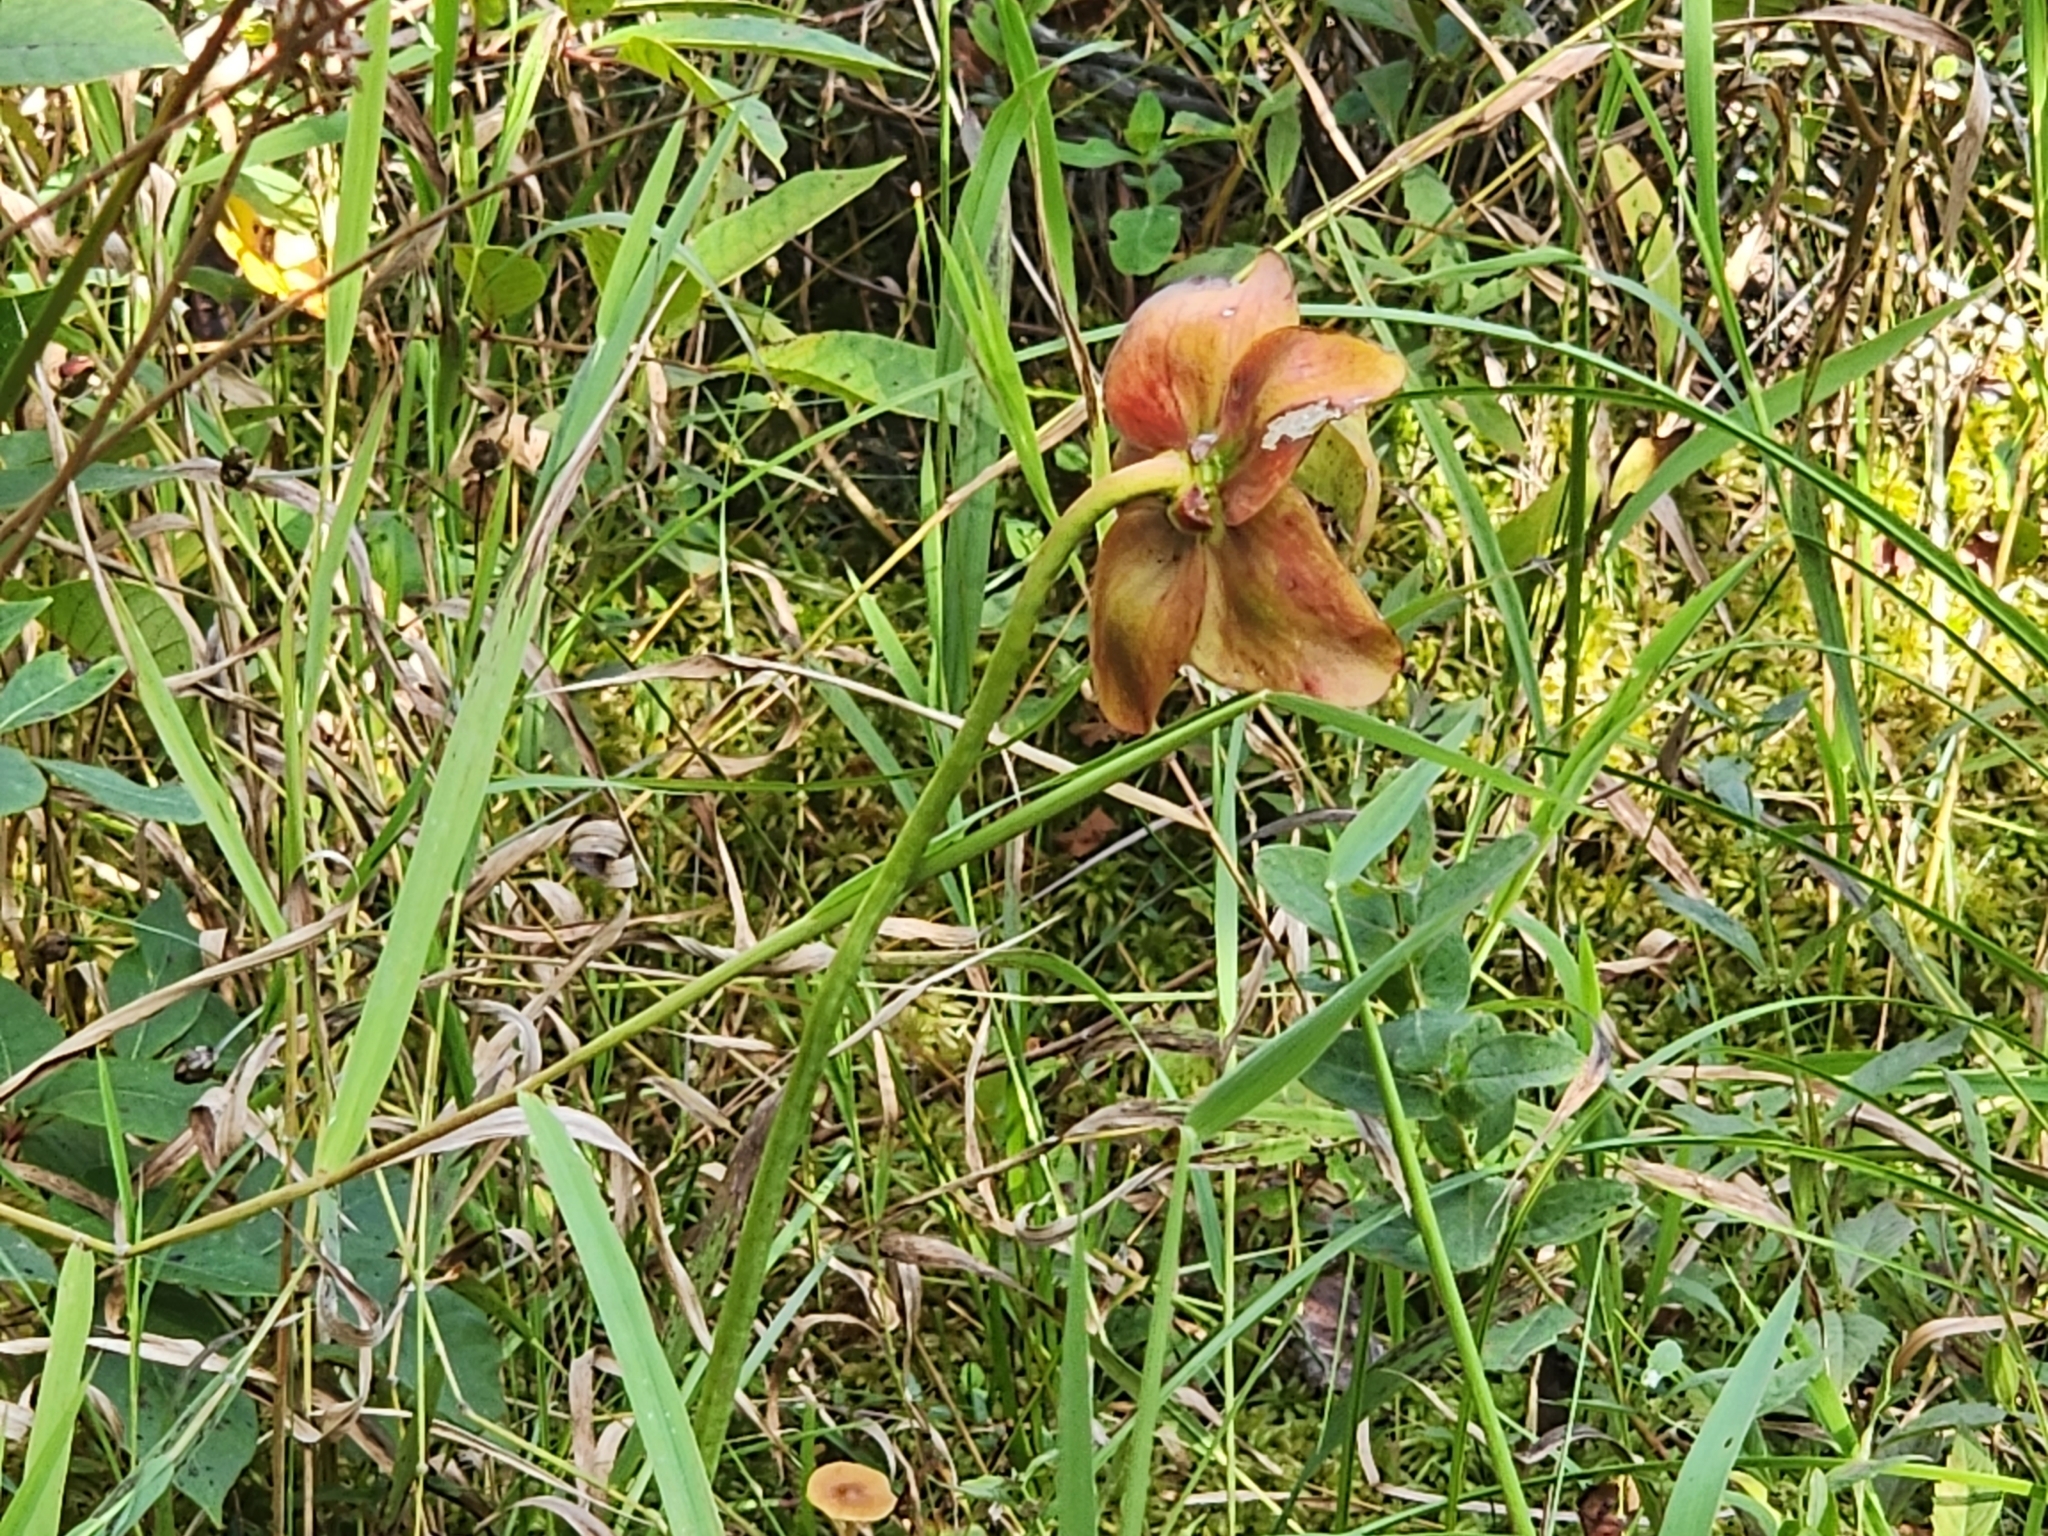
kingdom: Plantae
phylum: Tracheophyta
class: Magnoliopsida
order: Ericales
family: Sarraceniaceae
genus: Sarracenia
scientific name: Sarracenia purpurea
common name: Pitcherplant
